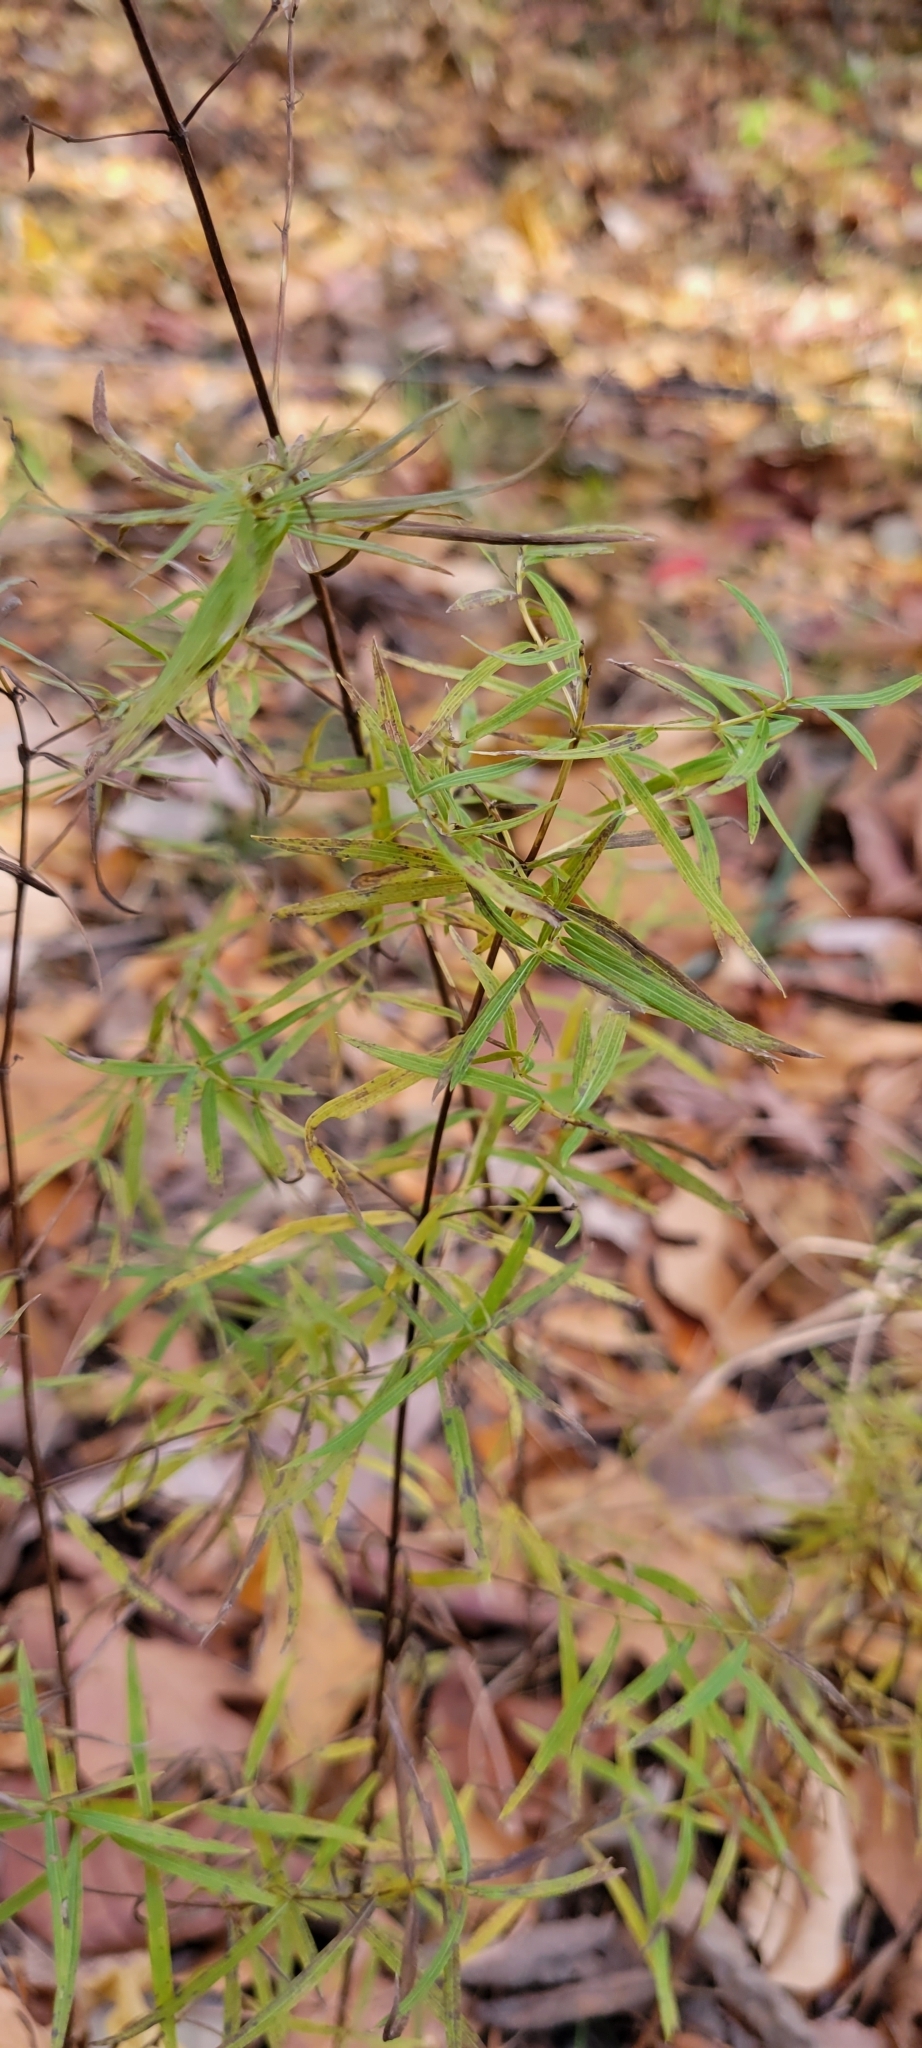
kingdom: Plantae
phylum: Tracheophyta
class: Magnoliopsida
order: Lamiales
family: Lamiaceae
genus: Pycnanthemum
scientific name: Pycnanthemum tenuifolium
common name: Narrow-leaf mountain-mint
